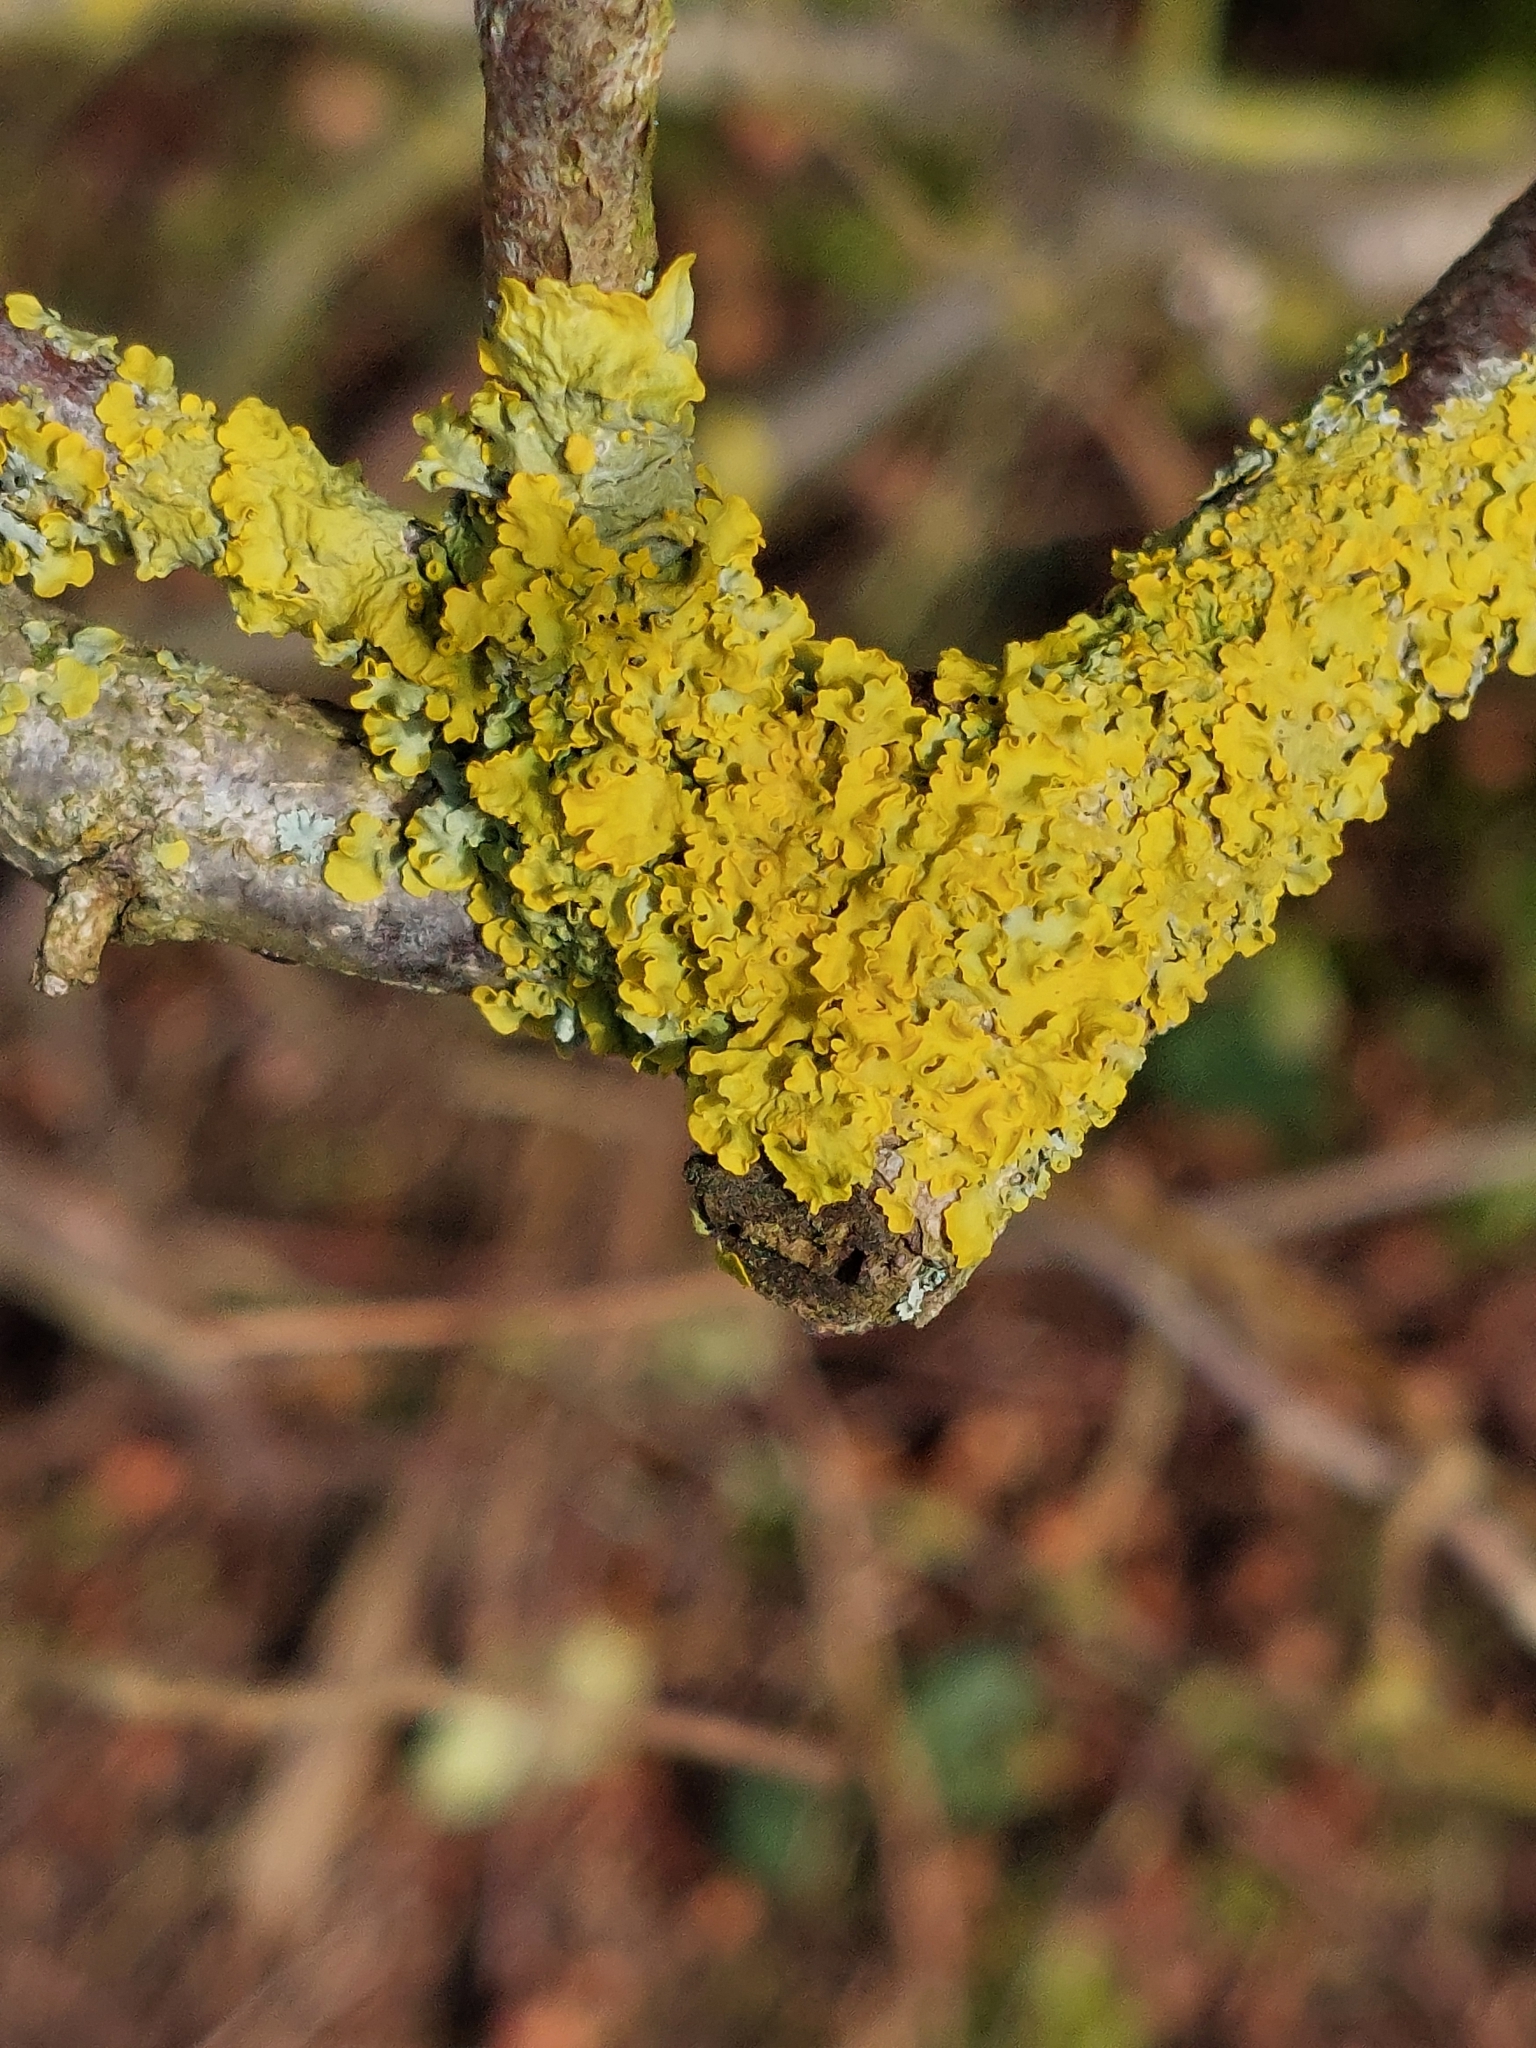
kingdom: Fungi
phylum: Ascomycota
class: Lecanoromycetes
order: Teloschistales
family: Teloschistaceae
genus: Xanthoria
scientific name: Xanthoria parietina
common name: Common orange lichen
